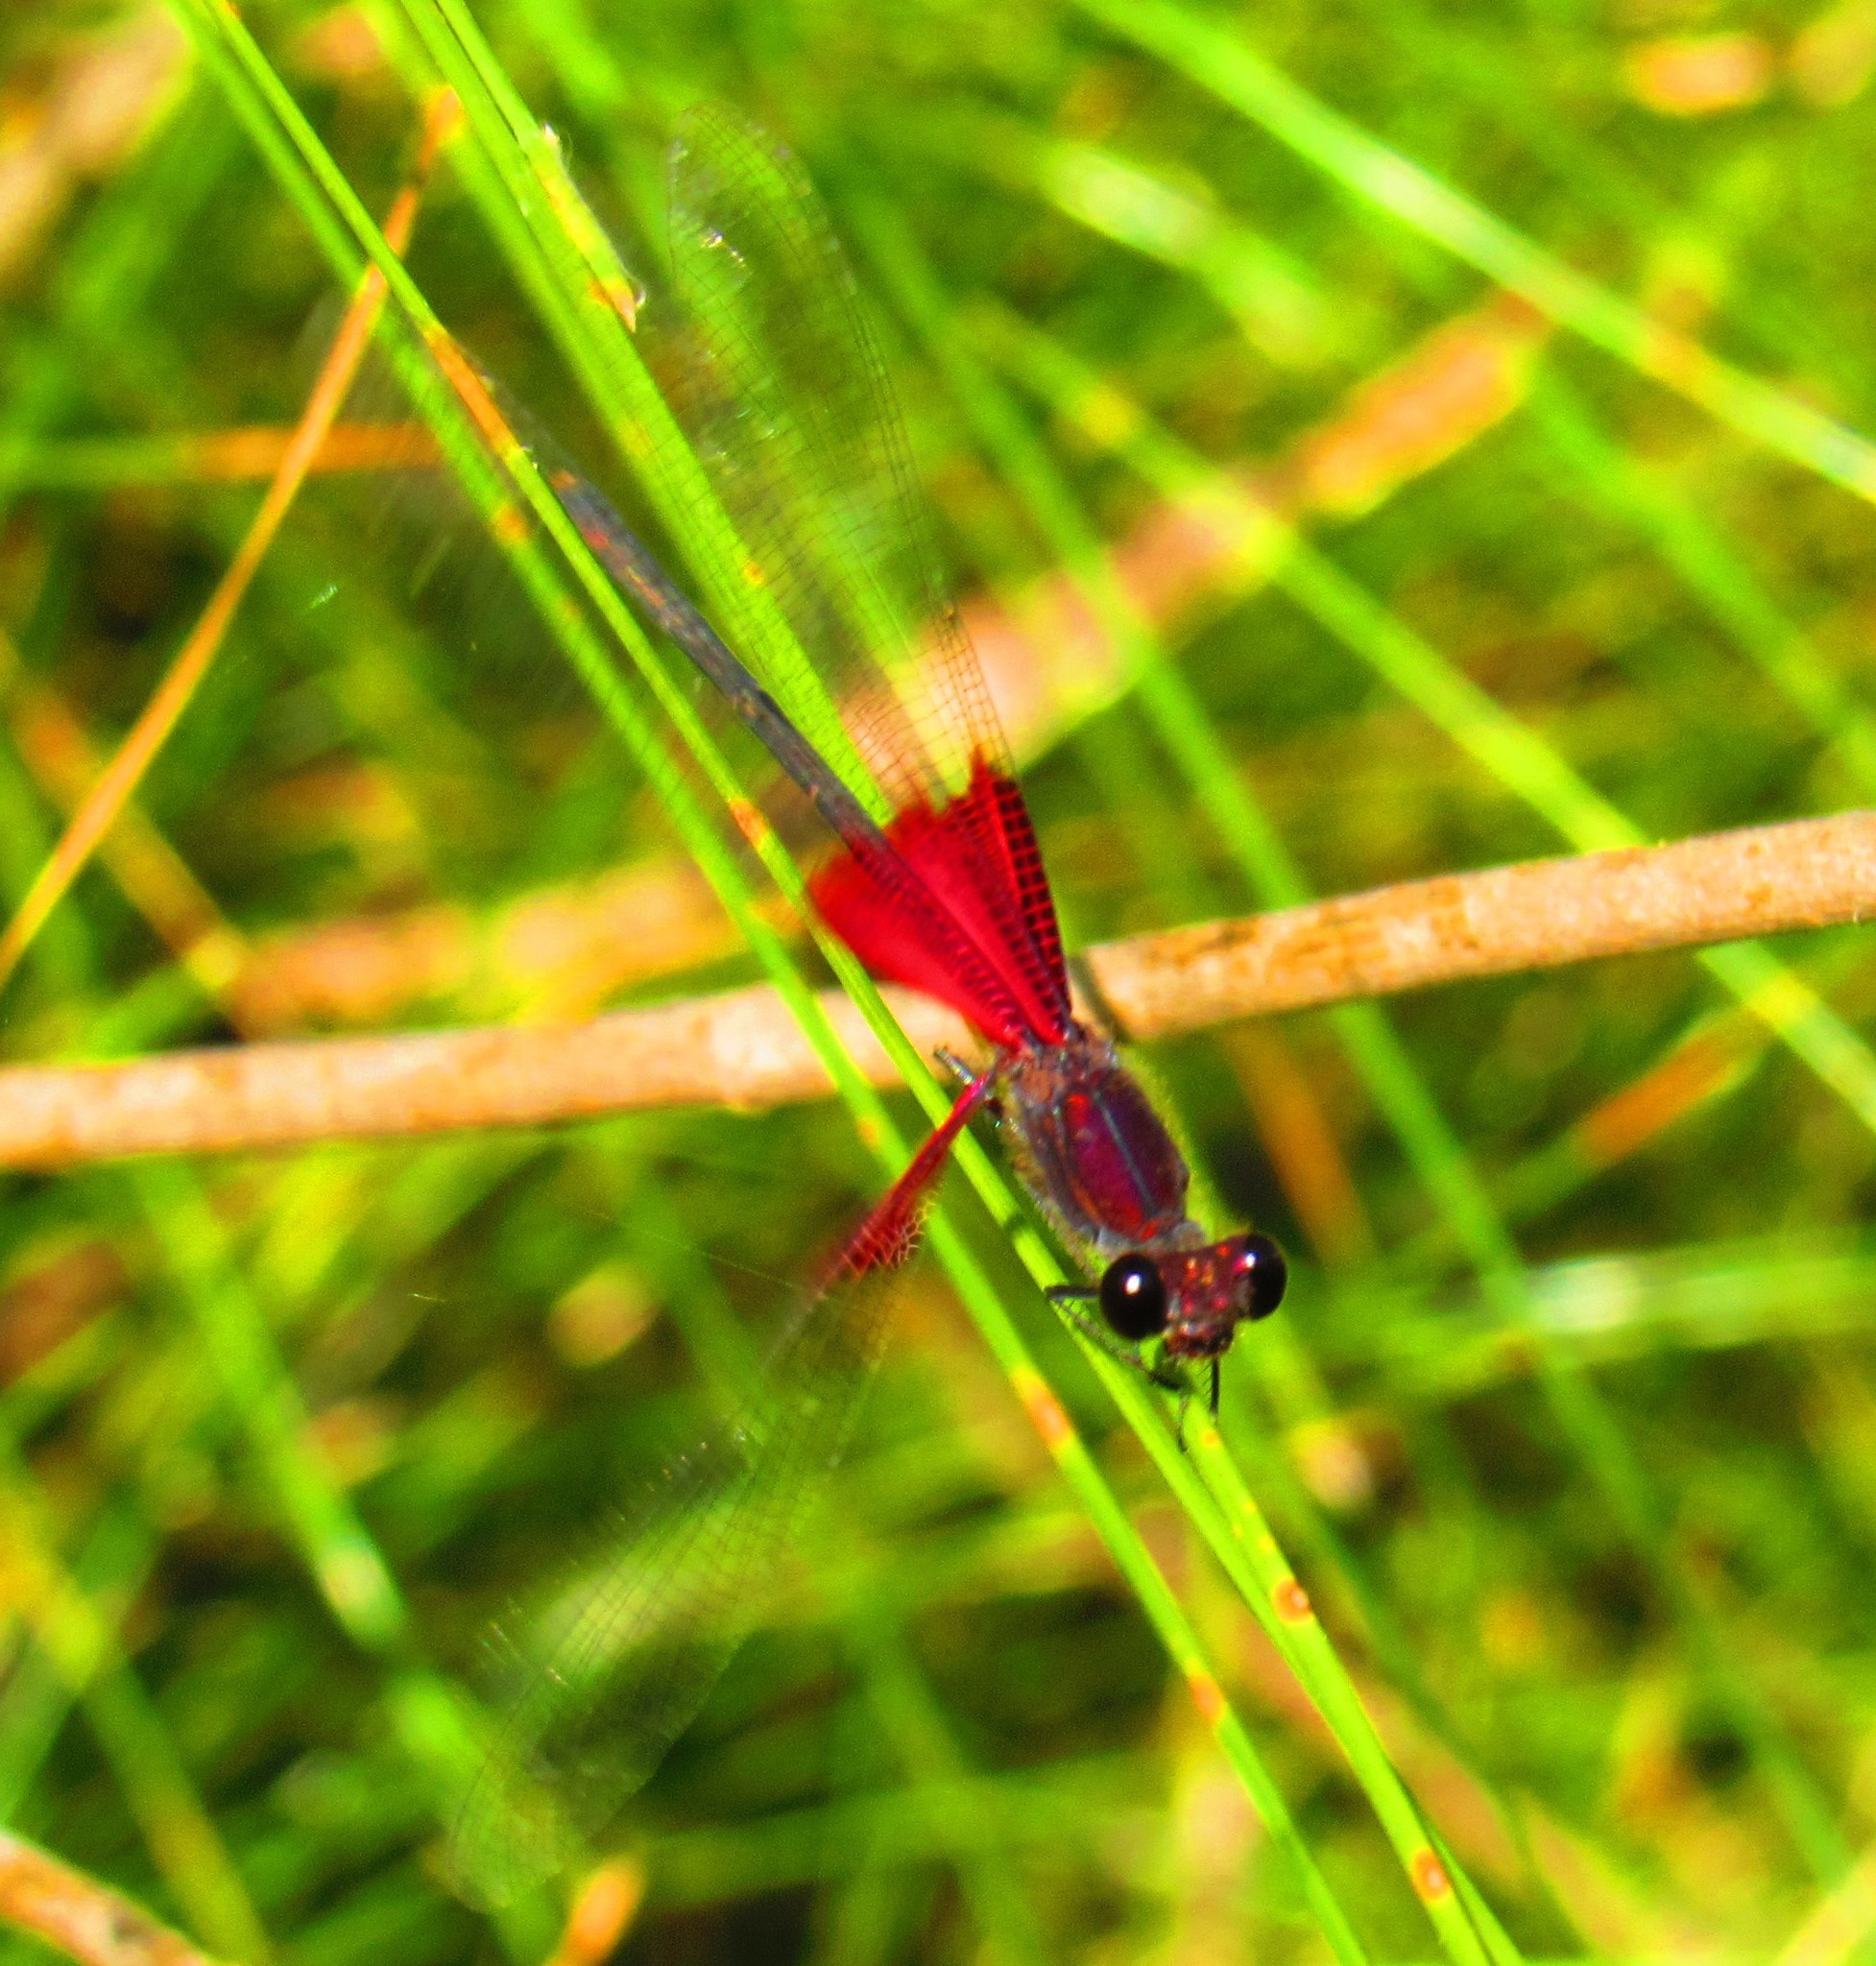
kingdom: Animalia
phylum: Arthropoda
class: Insecta
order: Odonata
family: Calopterygidae
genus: Hetaerina
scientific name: Hetaerina americana
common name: American rubyspot
